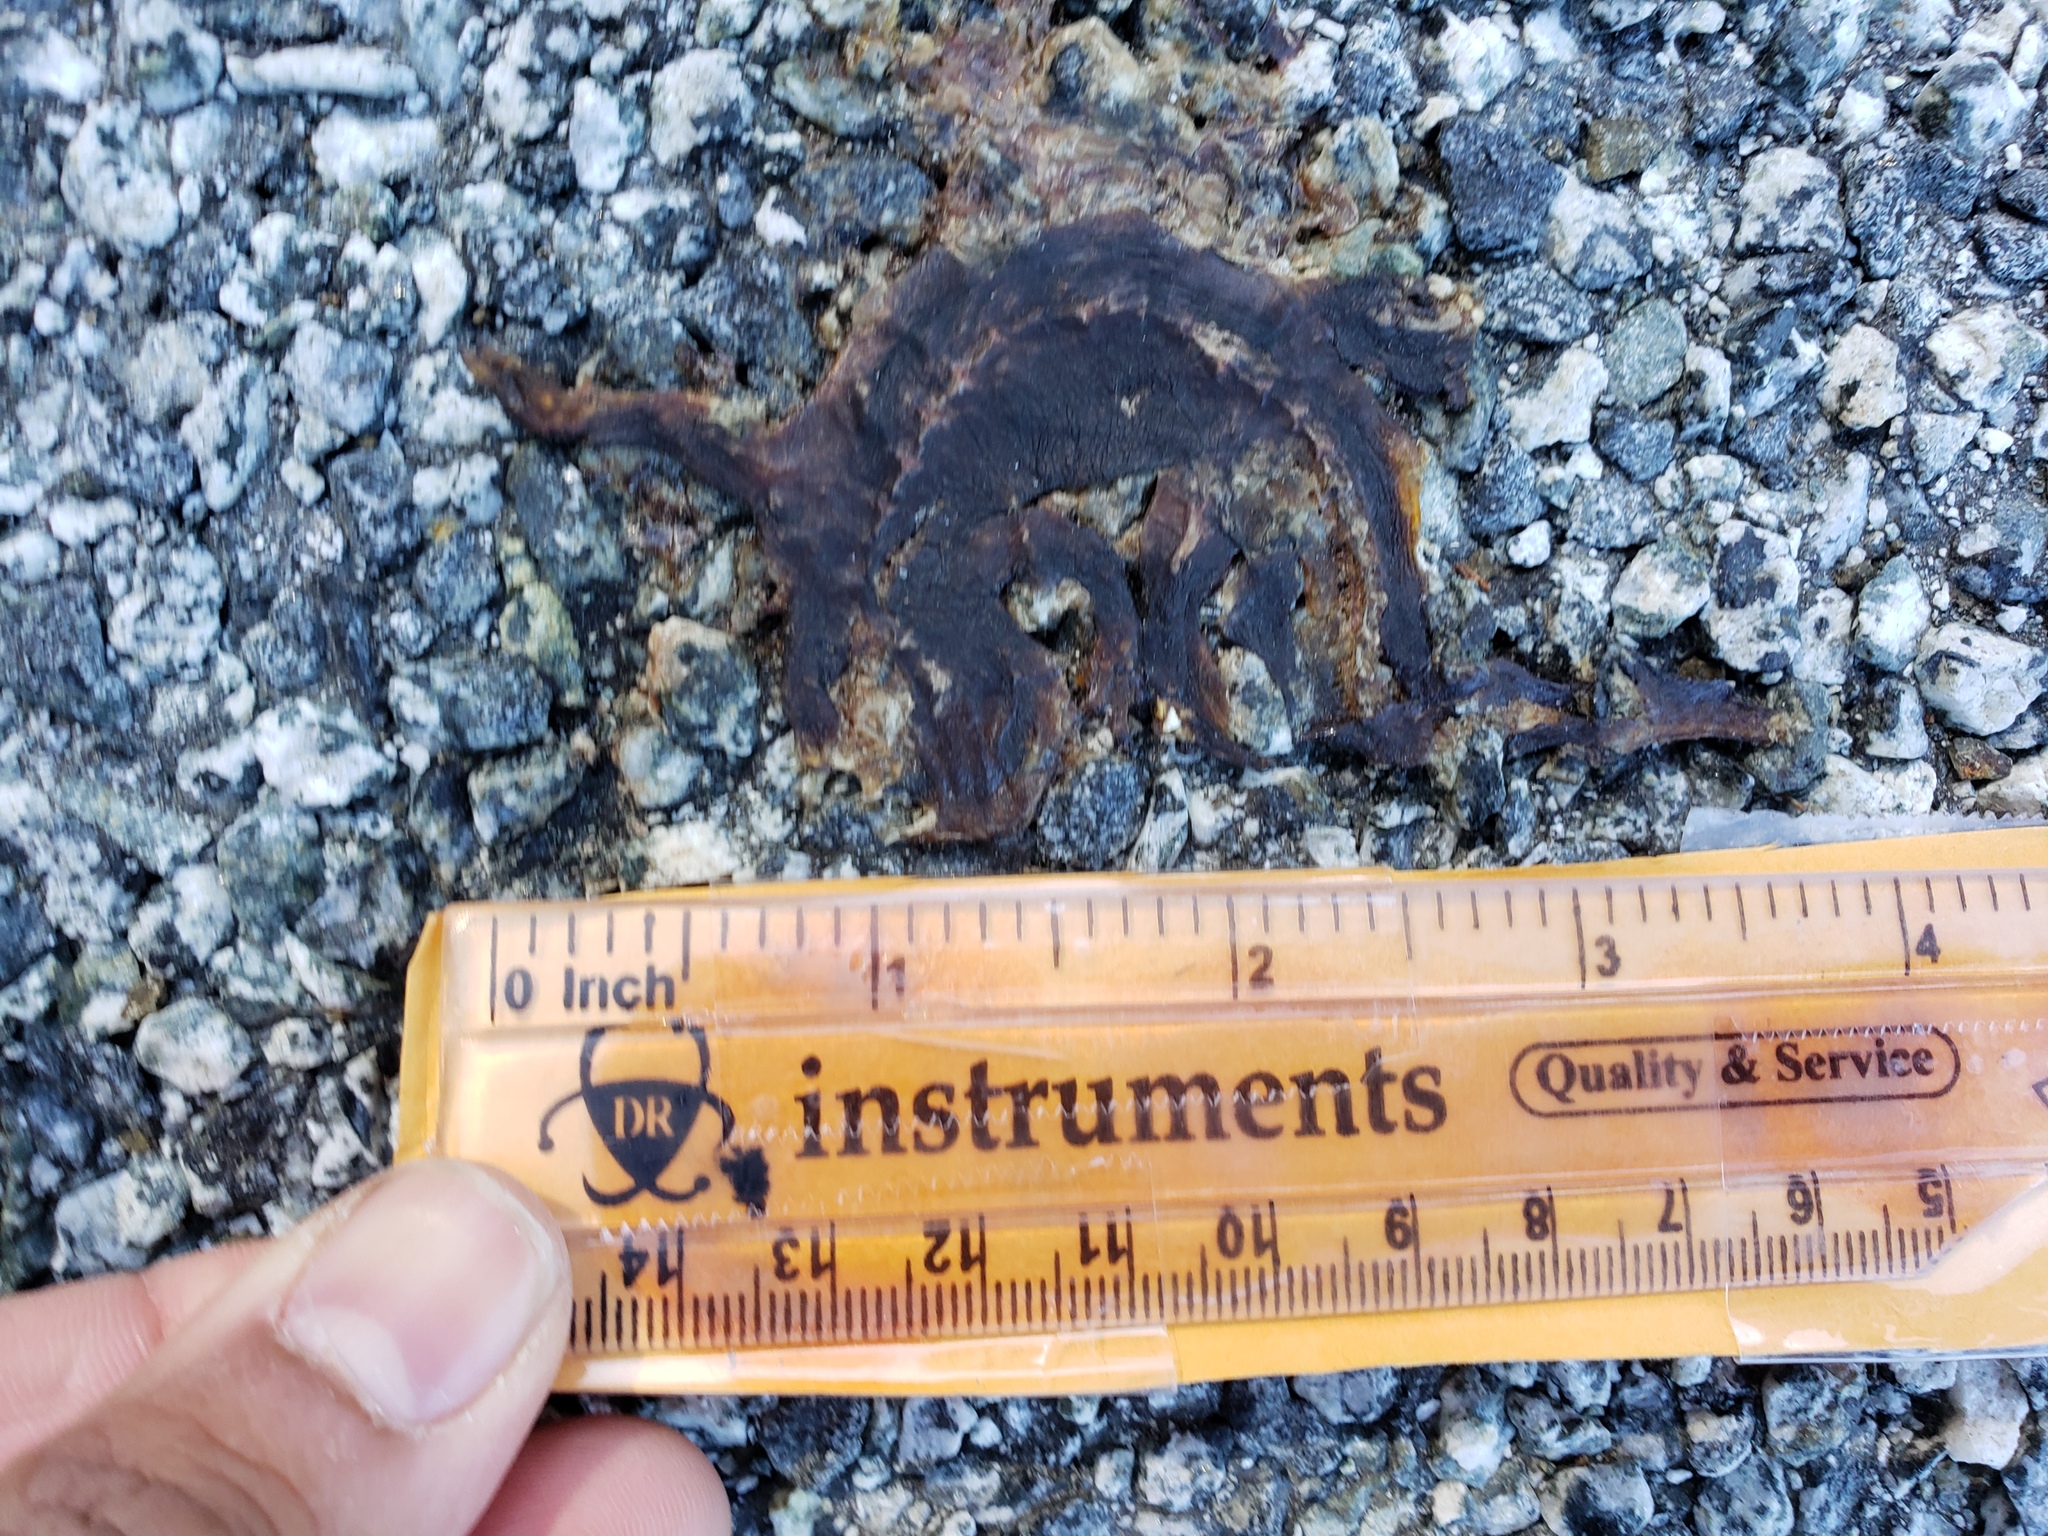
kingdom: Animalia
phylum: Chordata
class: Amphibia
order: Caudata
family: Salamandridae
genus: Taricha
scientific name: Taricha
